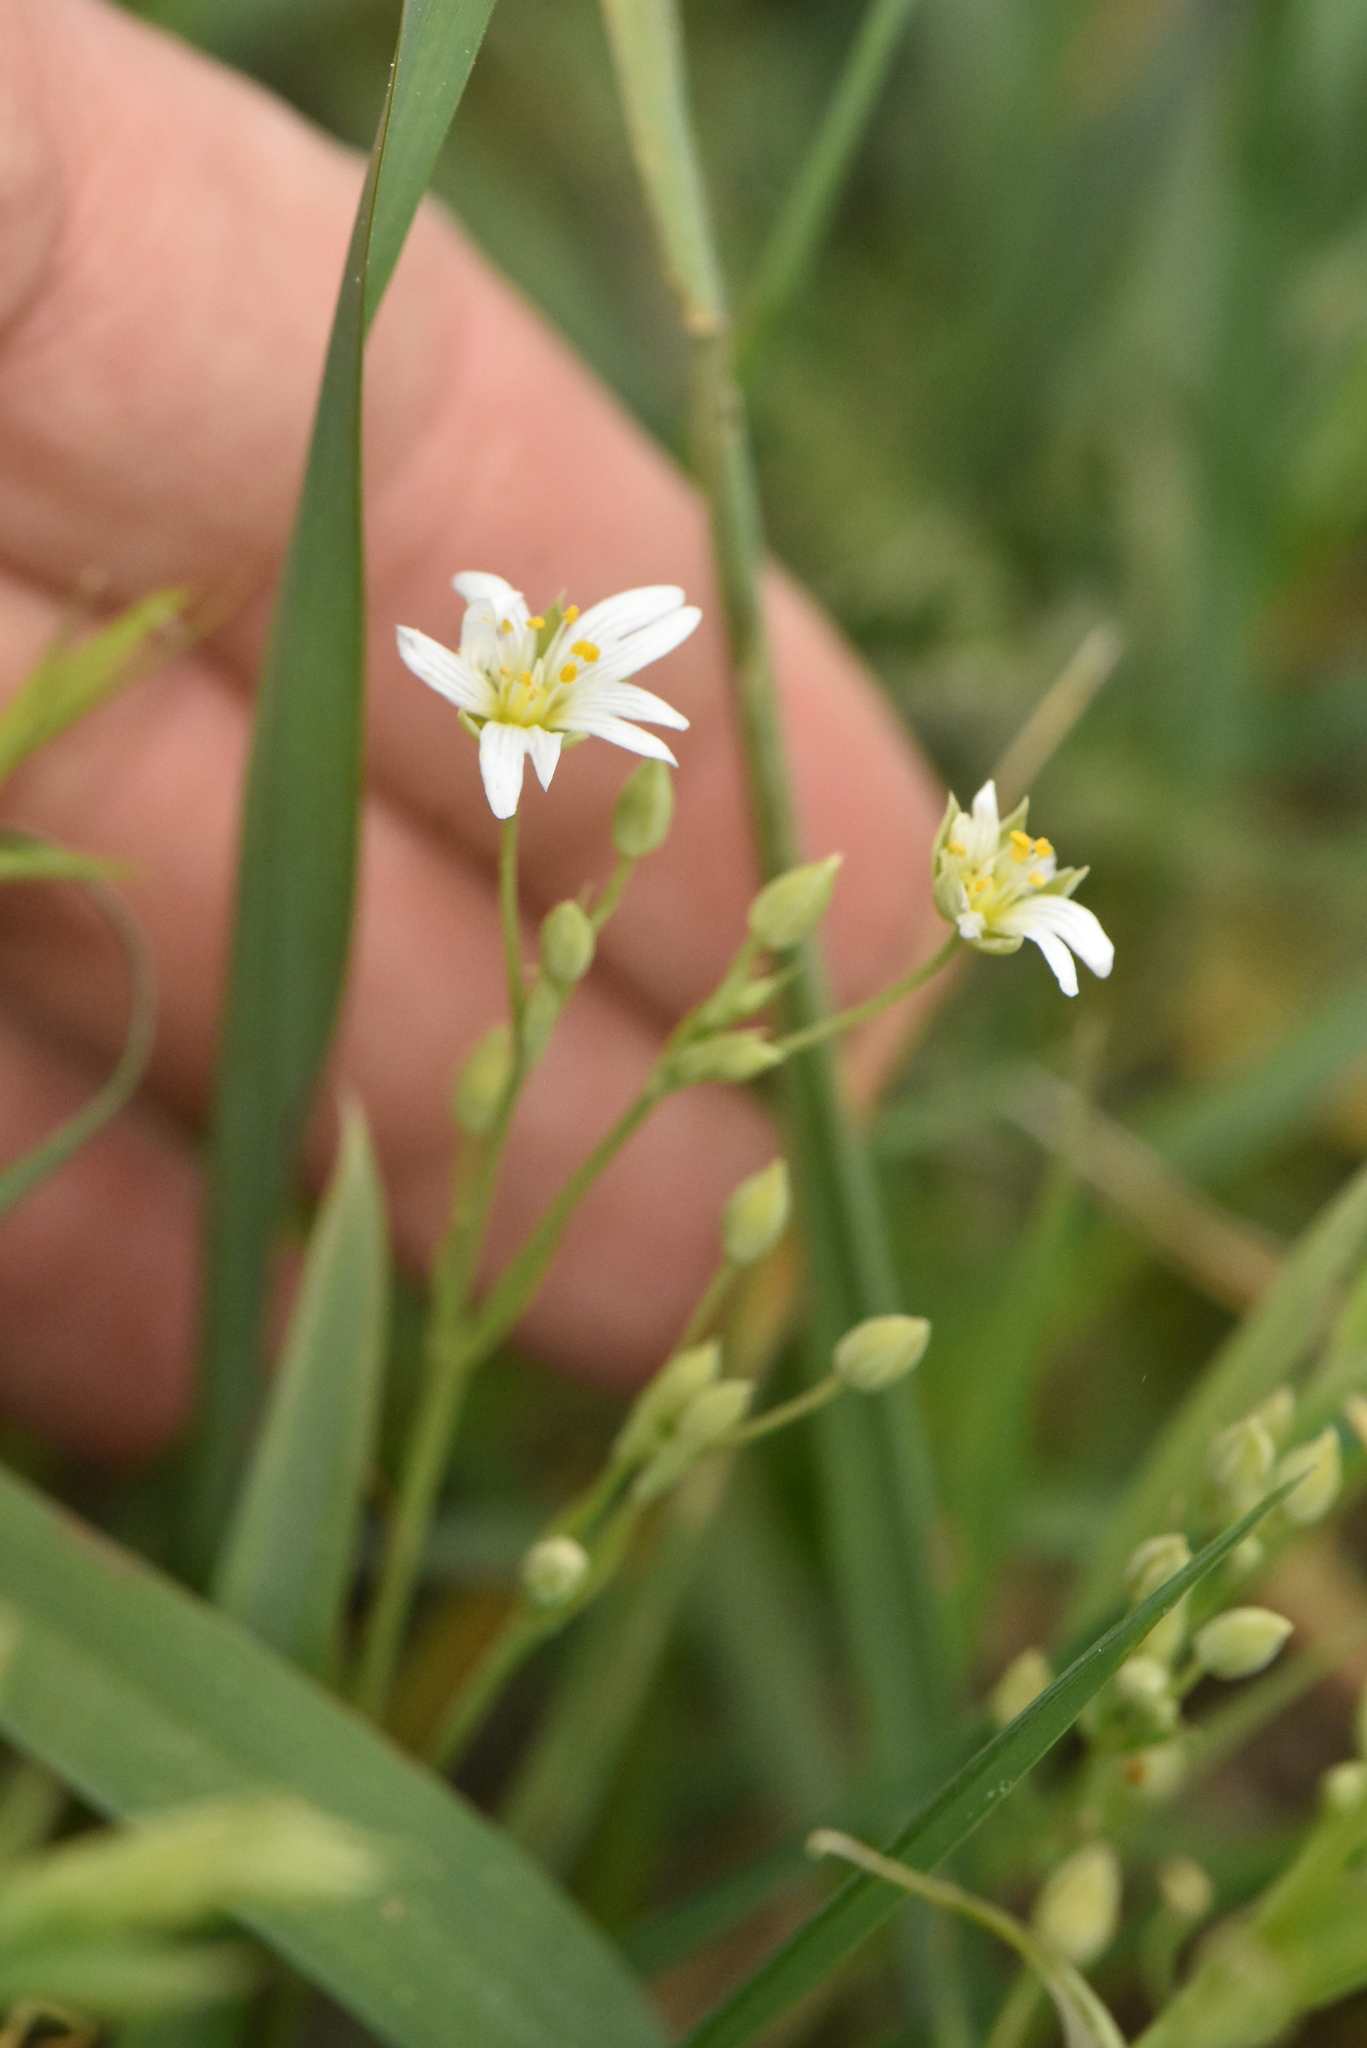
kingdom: Plantae
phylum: Tracheophyta
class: Magnoliopsida
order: Caryophyllales
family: Caryophyllaceae
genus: Stellaria
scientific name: Stellaria graminea
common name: Grass-like starwort
